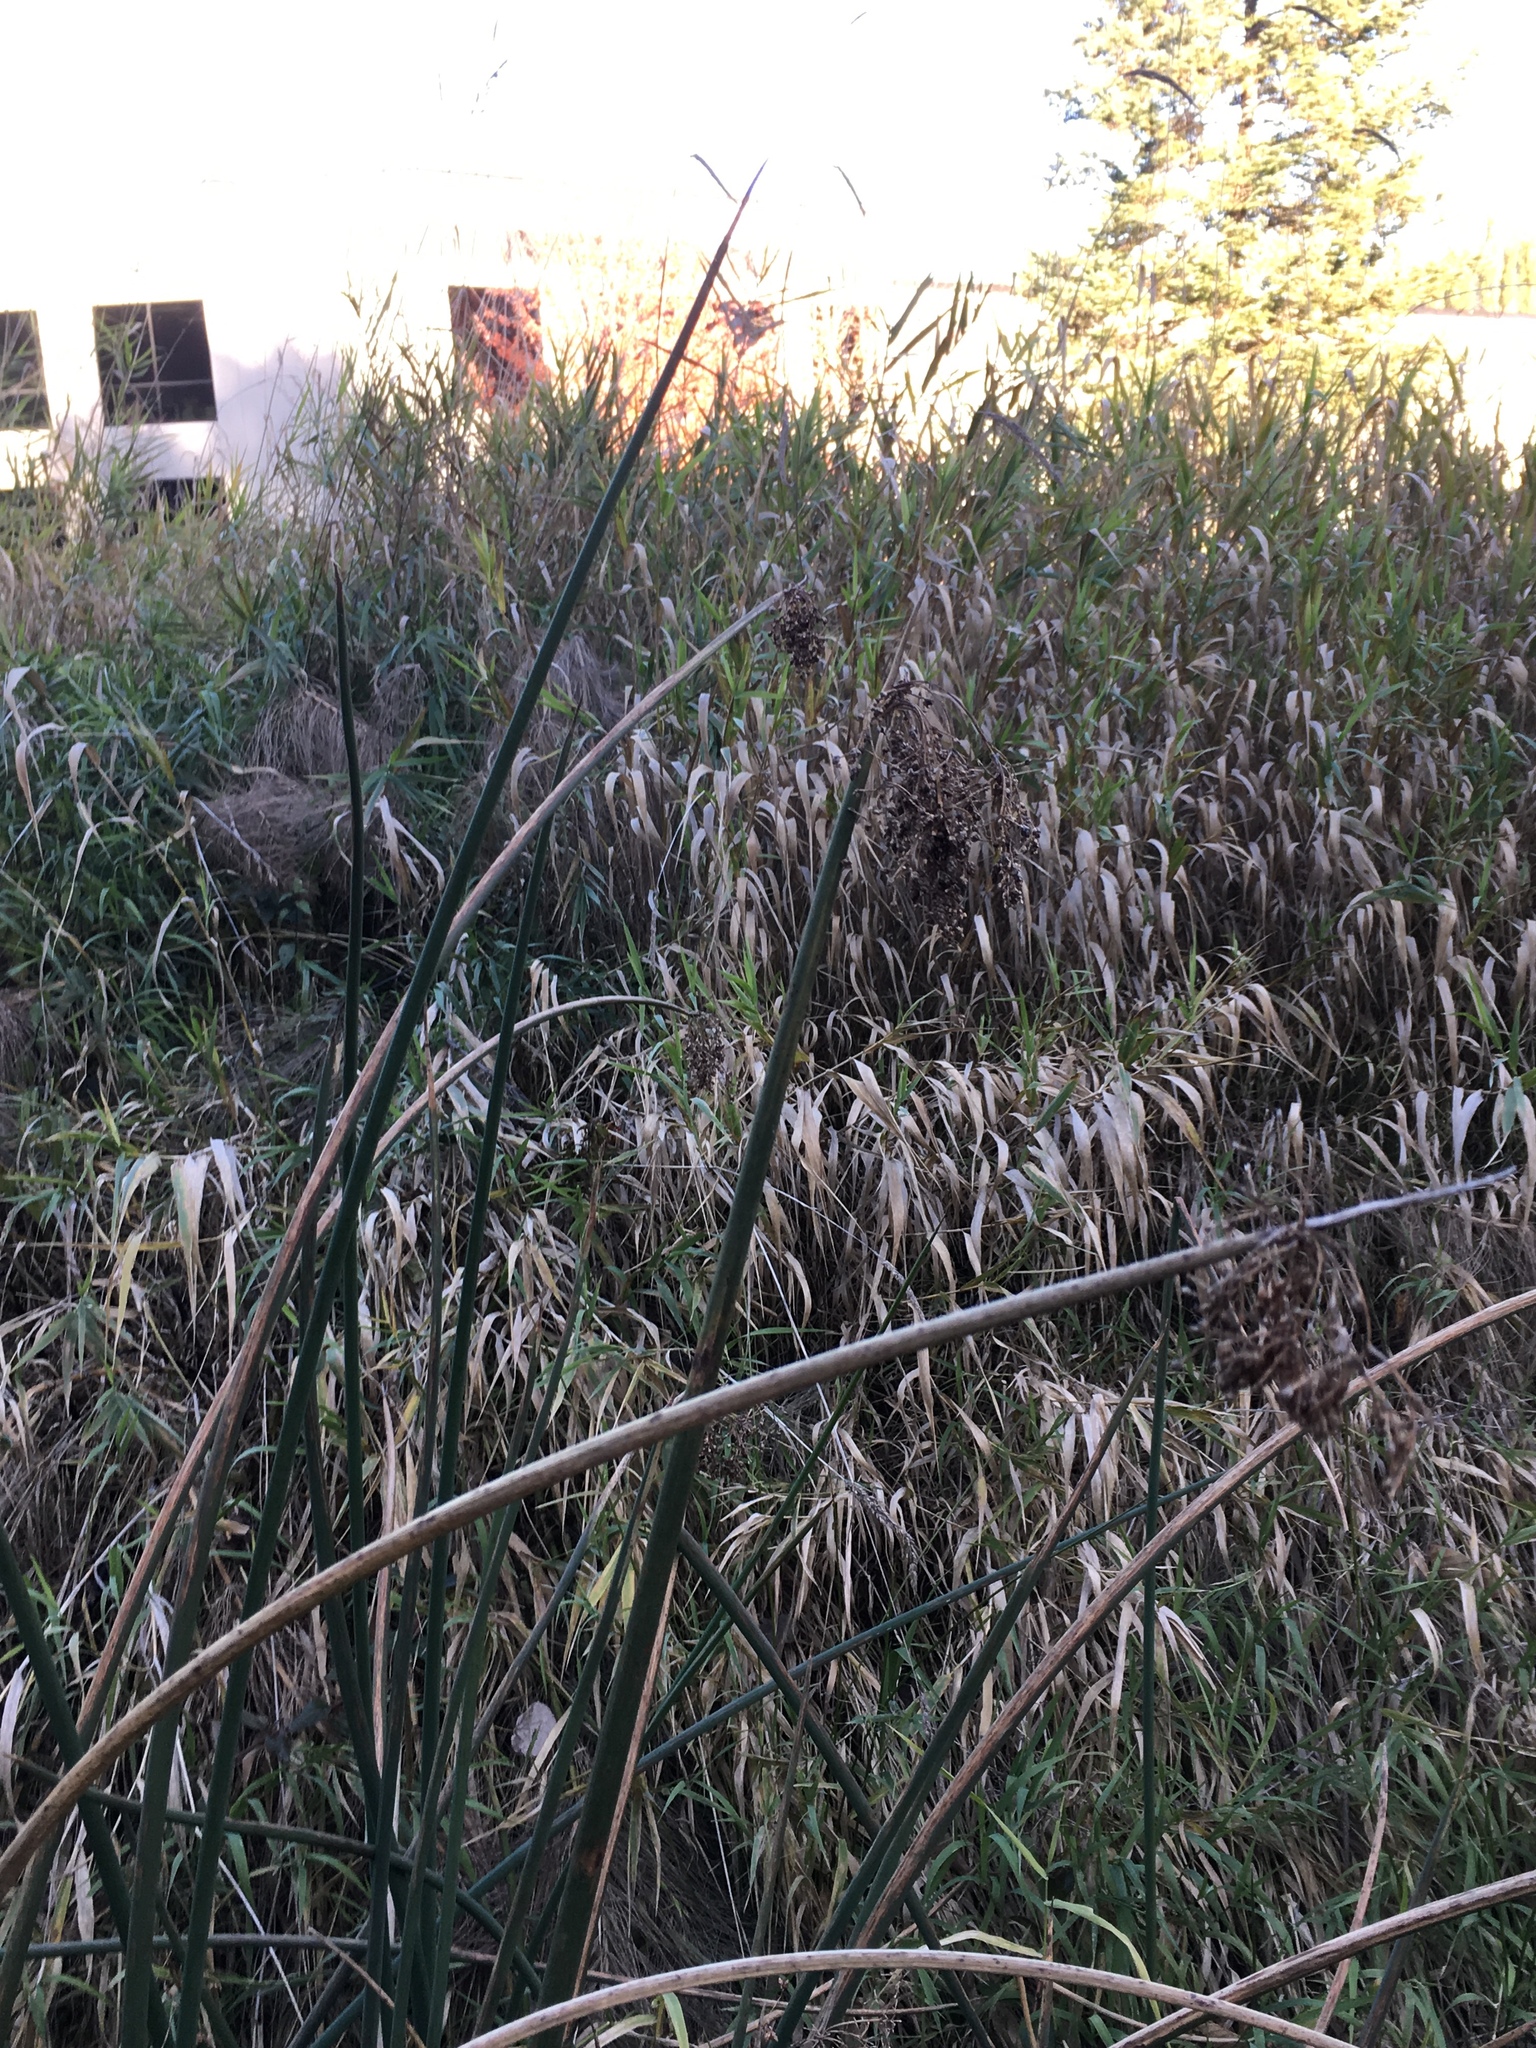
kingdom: Plantae
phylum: Tracheophyta
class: Liliopsida
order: Poales
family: Cyperaceae
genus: Schoenoplectus
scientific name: Schoenoplectus tabernaemontani
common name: Grey club-rush
